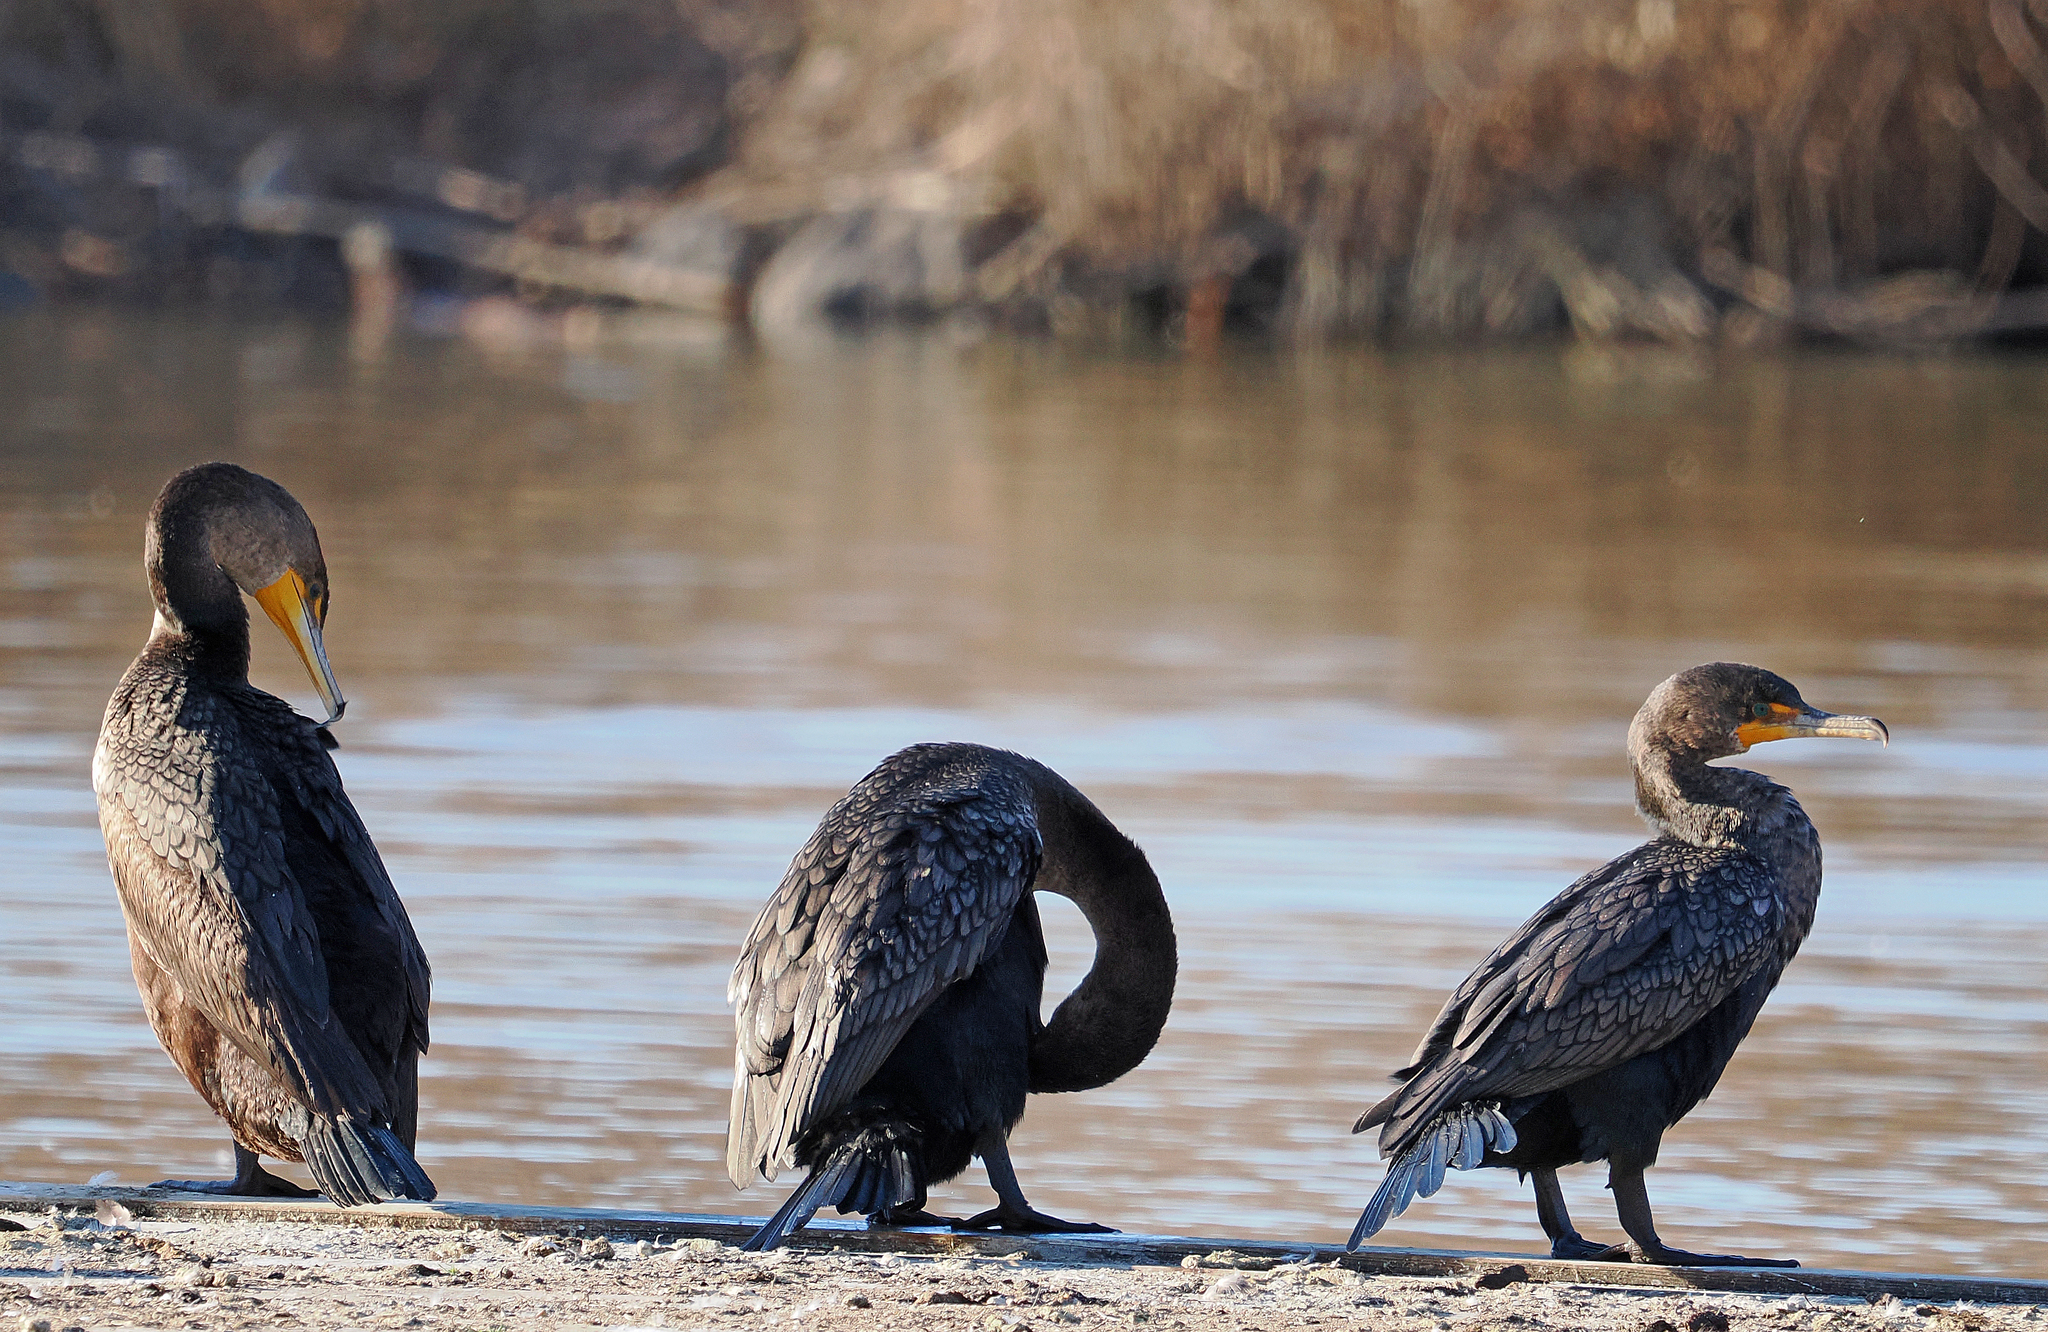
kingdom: Animalia
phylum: Chordata
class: Aves
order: Suliformes
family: Phalacrocoracidae
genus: Phalacrocorax
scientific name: Phalacrocorax auritus
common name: Double-crested cormorant
